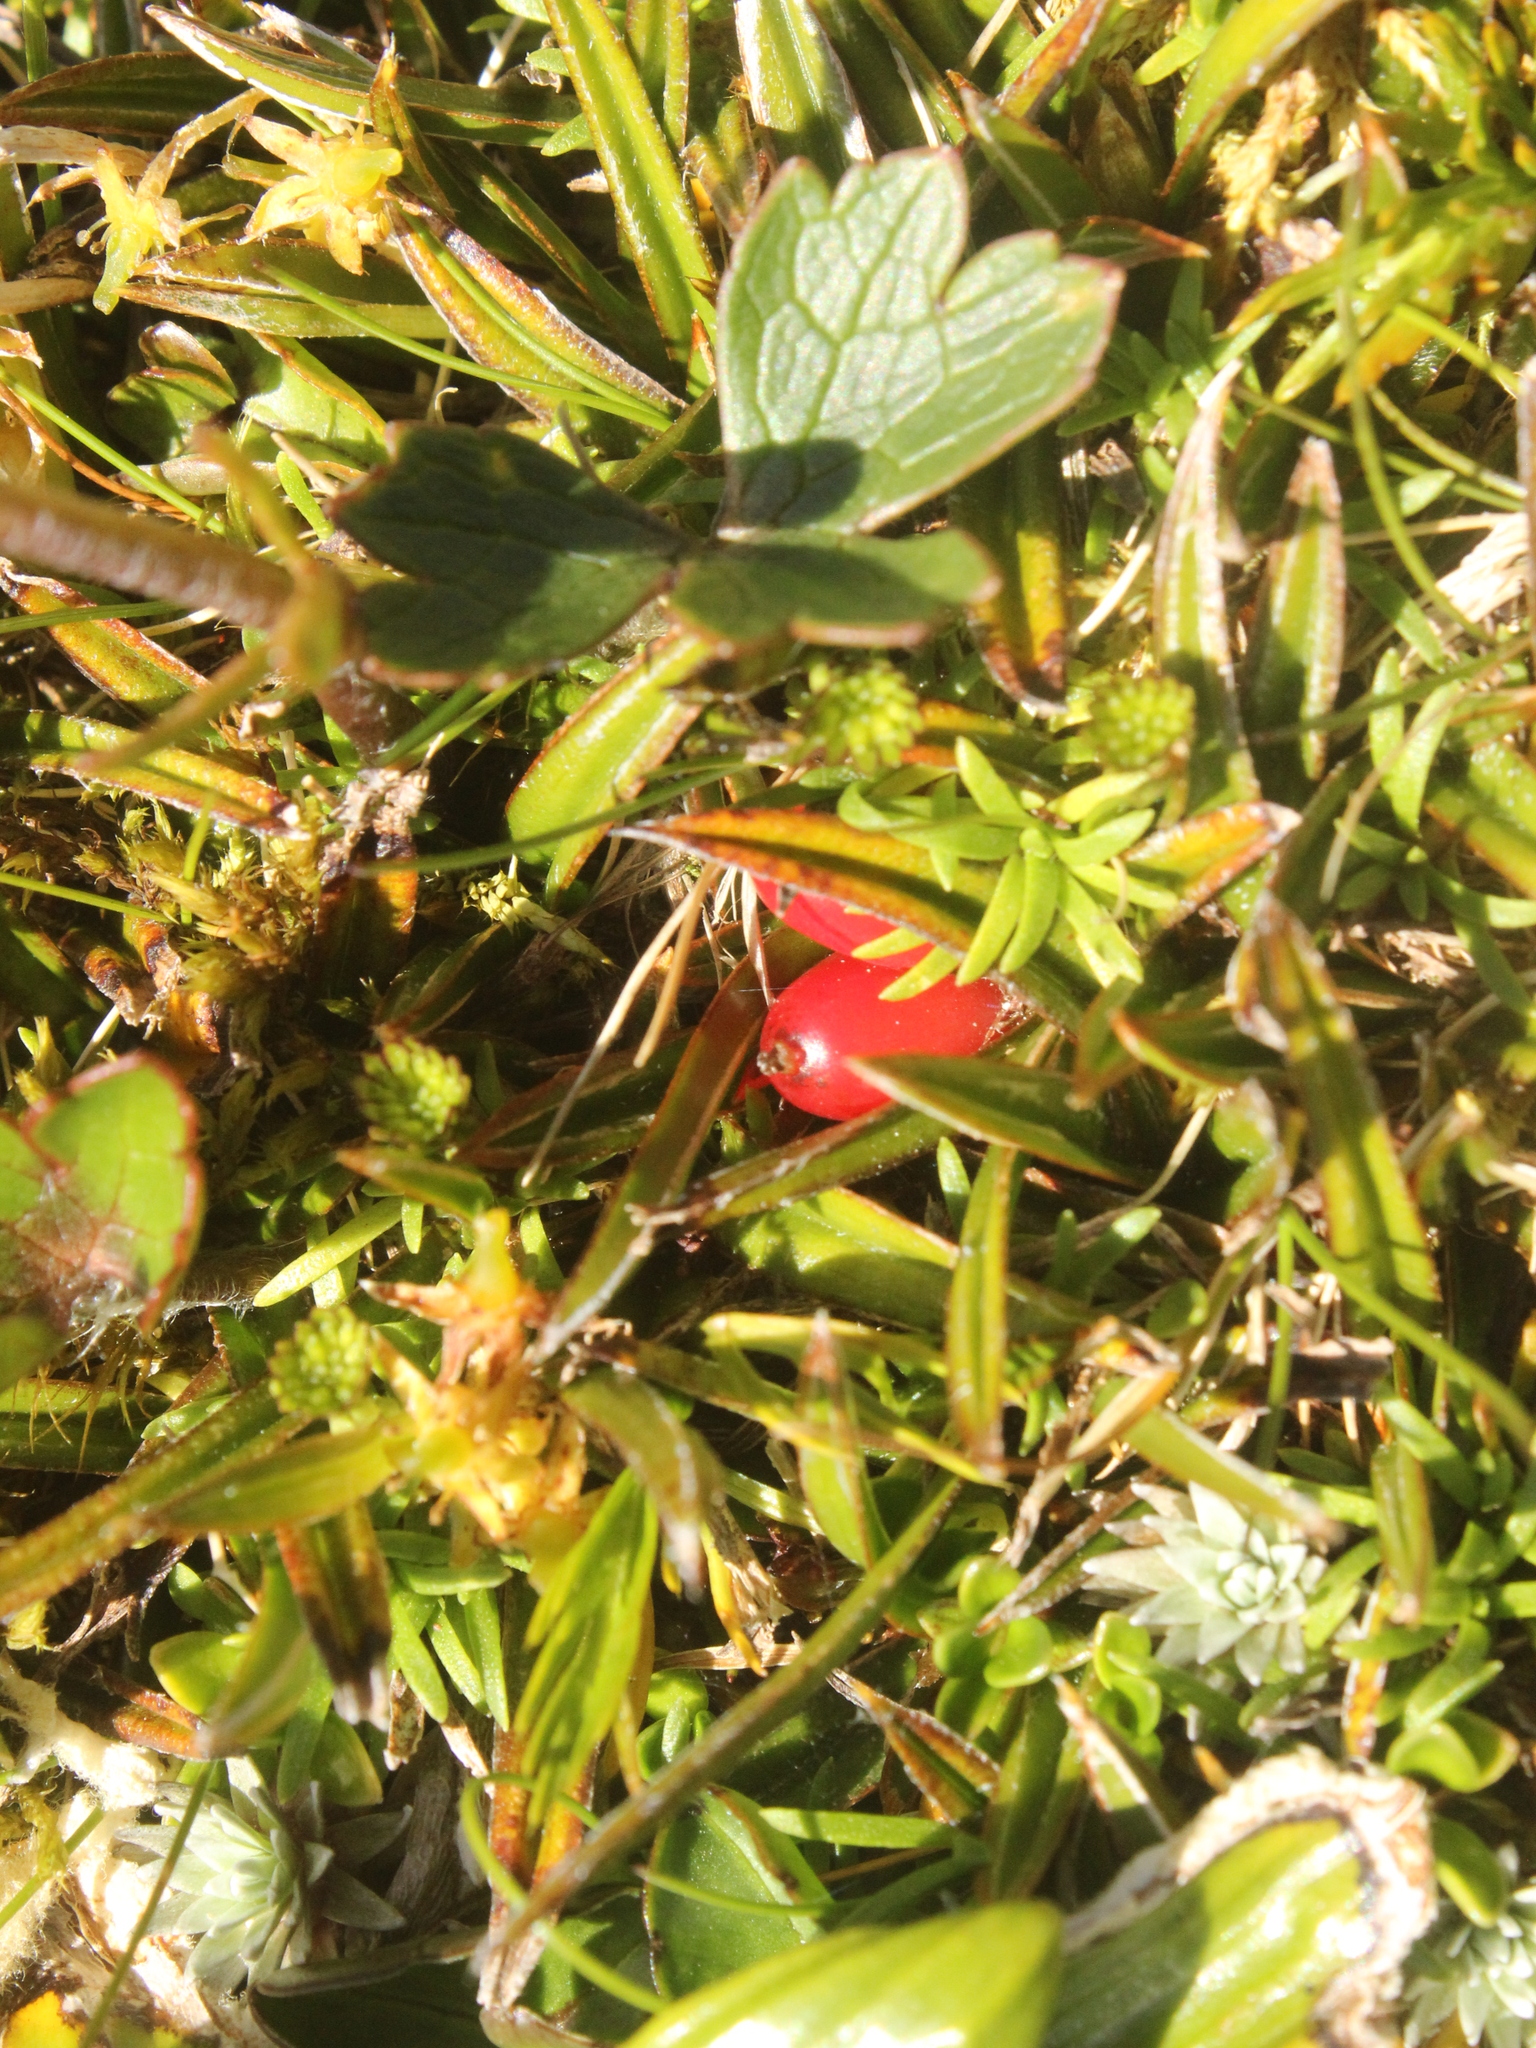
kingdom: Plantae
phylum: Tracheophyta
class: Liliopsida
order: Asparagales
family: Asteliaceae
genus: Astelia
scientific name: Astelia linearis
